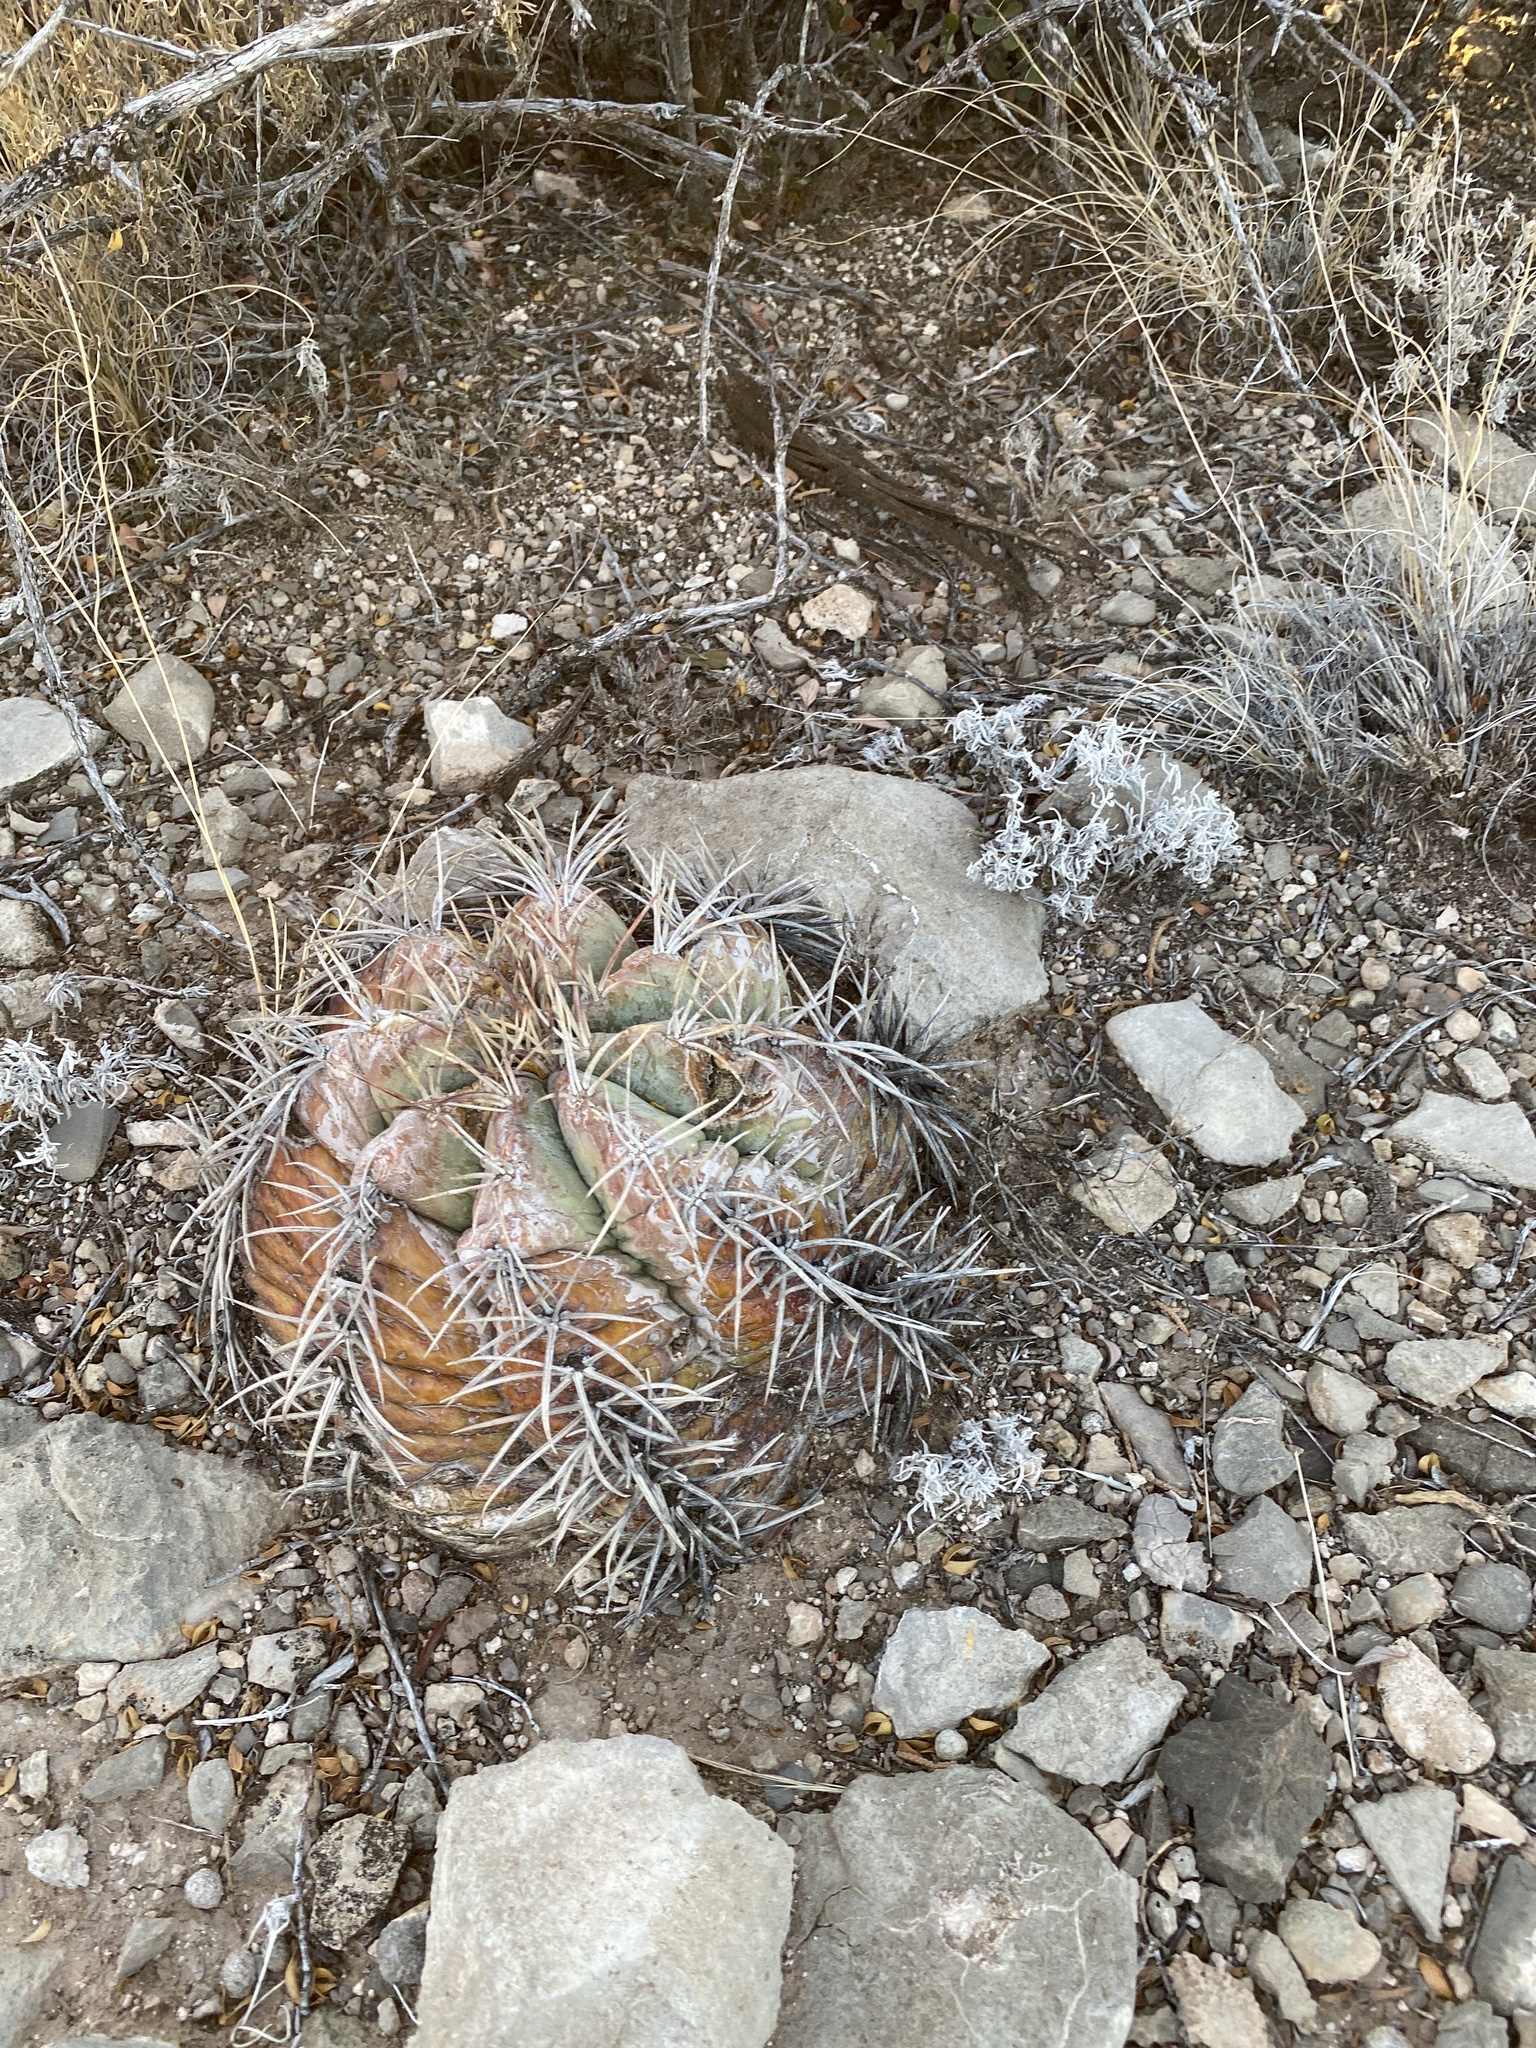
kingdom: Plantae
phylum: Tracheophyta
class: Magnoliopsida
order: Caryophyllales
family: Cactaceae
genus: Echinocactus
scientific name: Echinocactus horizonthalonius
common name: Devilshead
